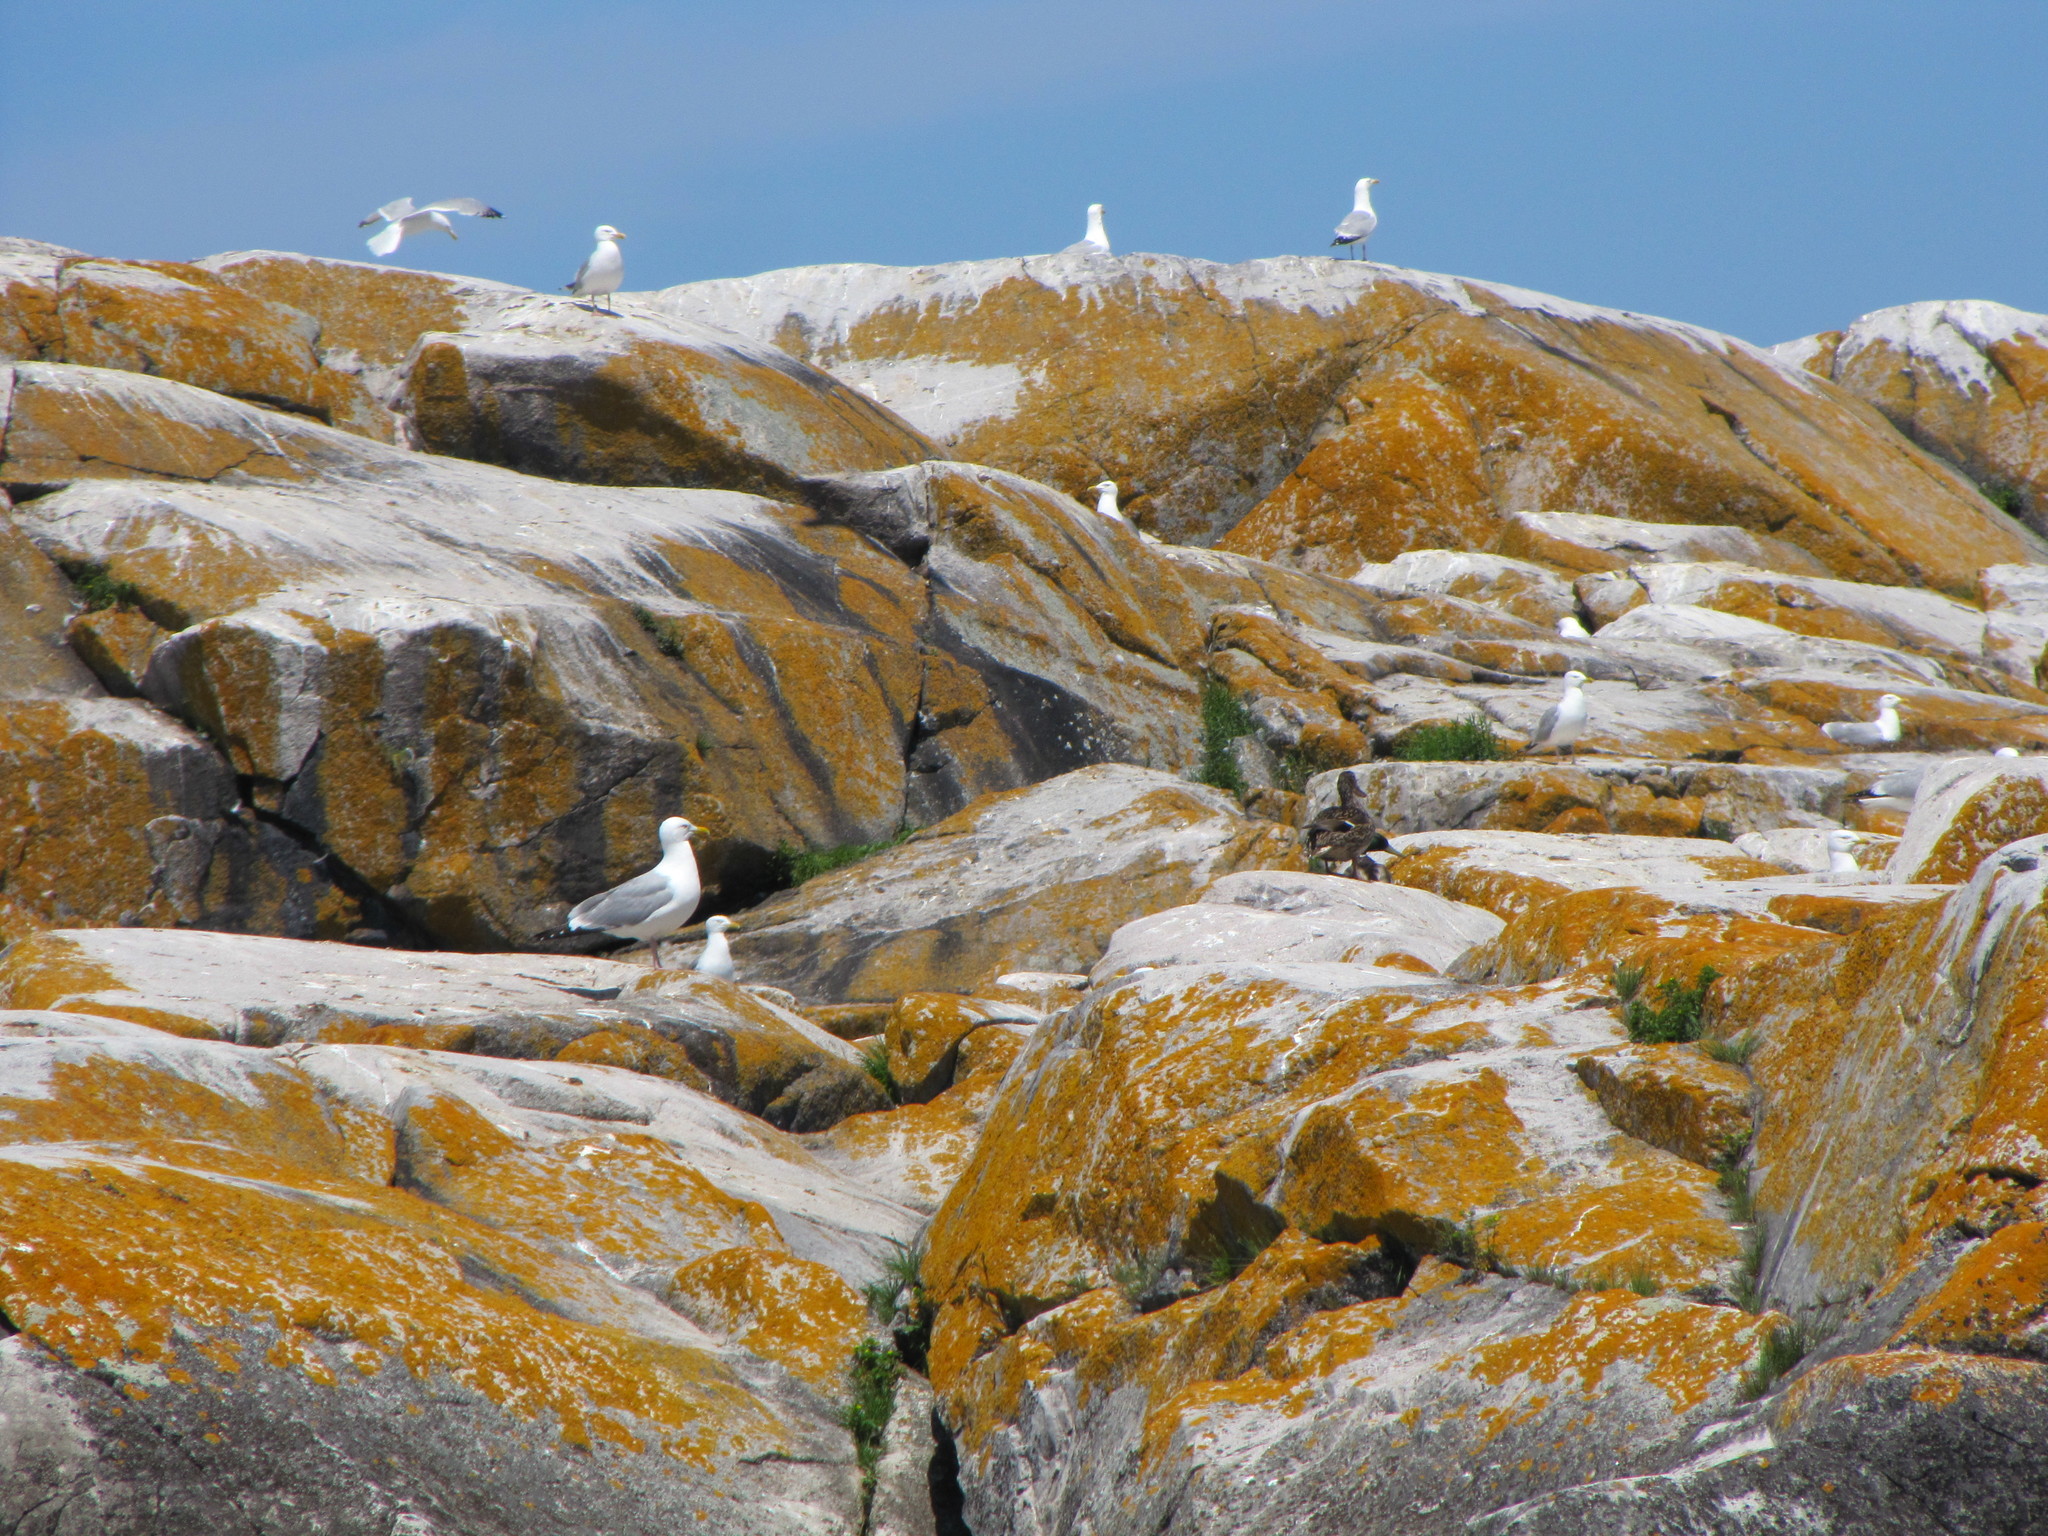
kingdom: Animalia
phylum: Chordata
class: Aves
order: Anseriformes
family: Anatidae
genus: Anas
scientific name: Anas platyrhynchos
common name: Mallard
